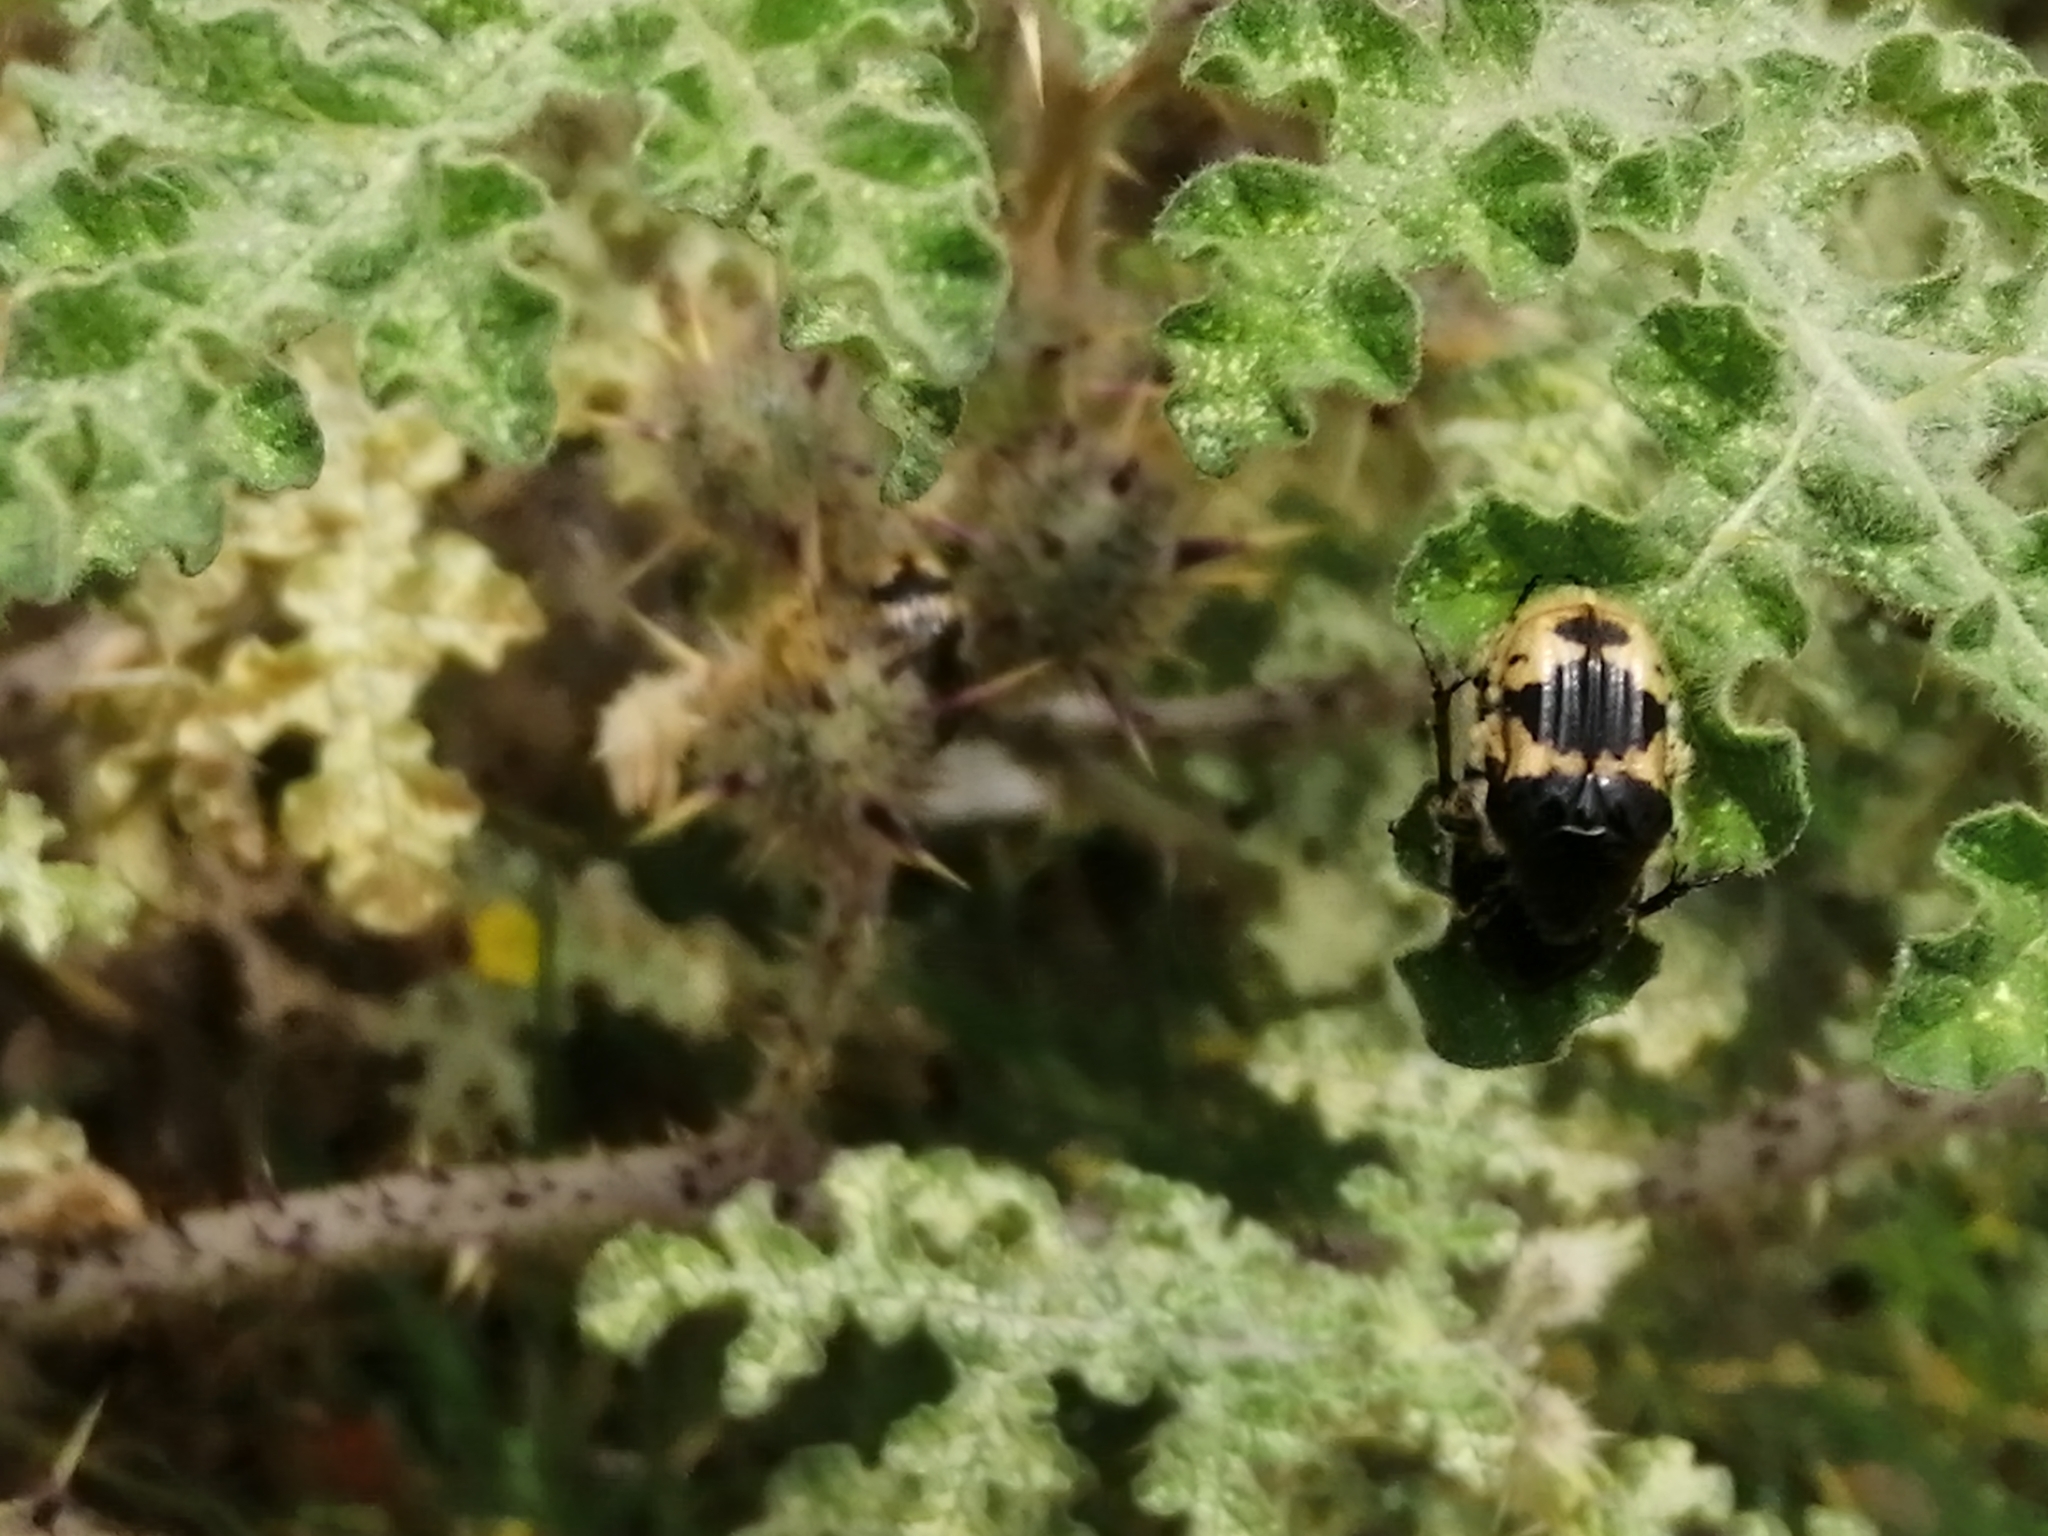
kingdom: Animalia
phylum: Arthropoda
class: Insecta
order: Coleoptera
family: Scarabaeidae
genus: Euphoria
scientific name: Euphoria basalis
